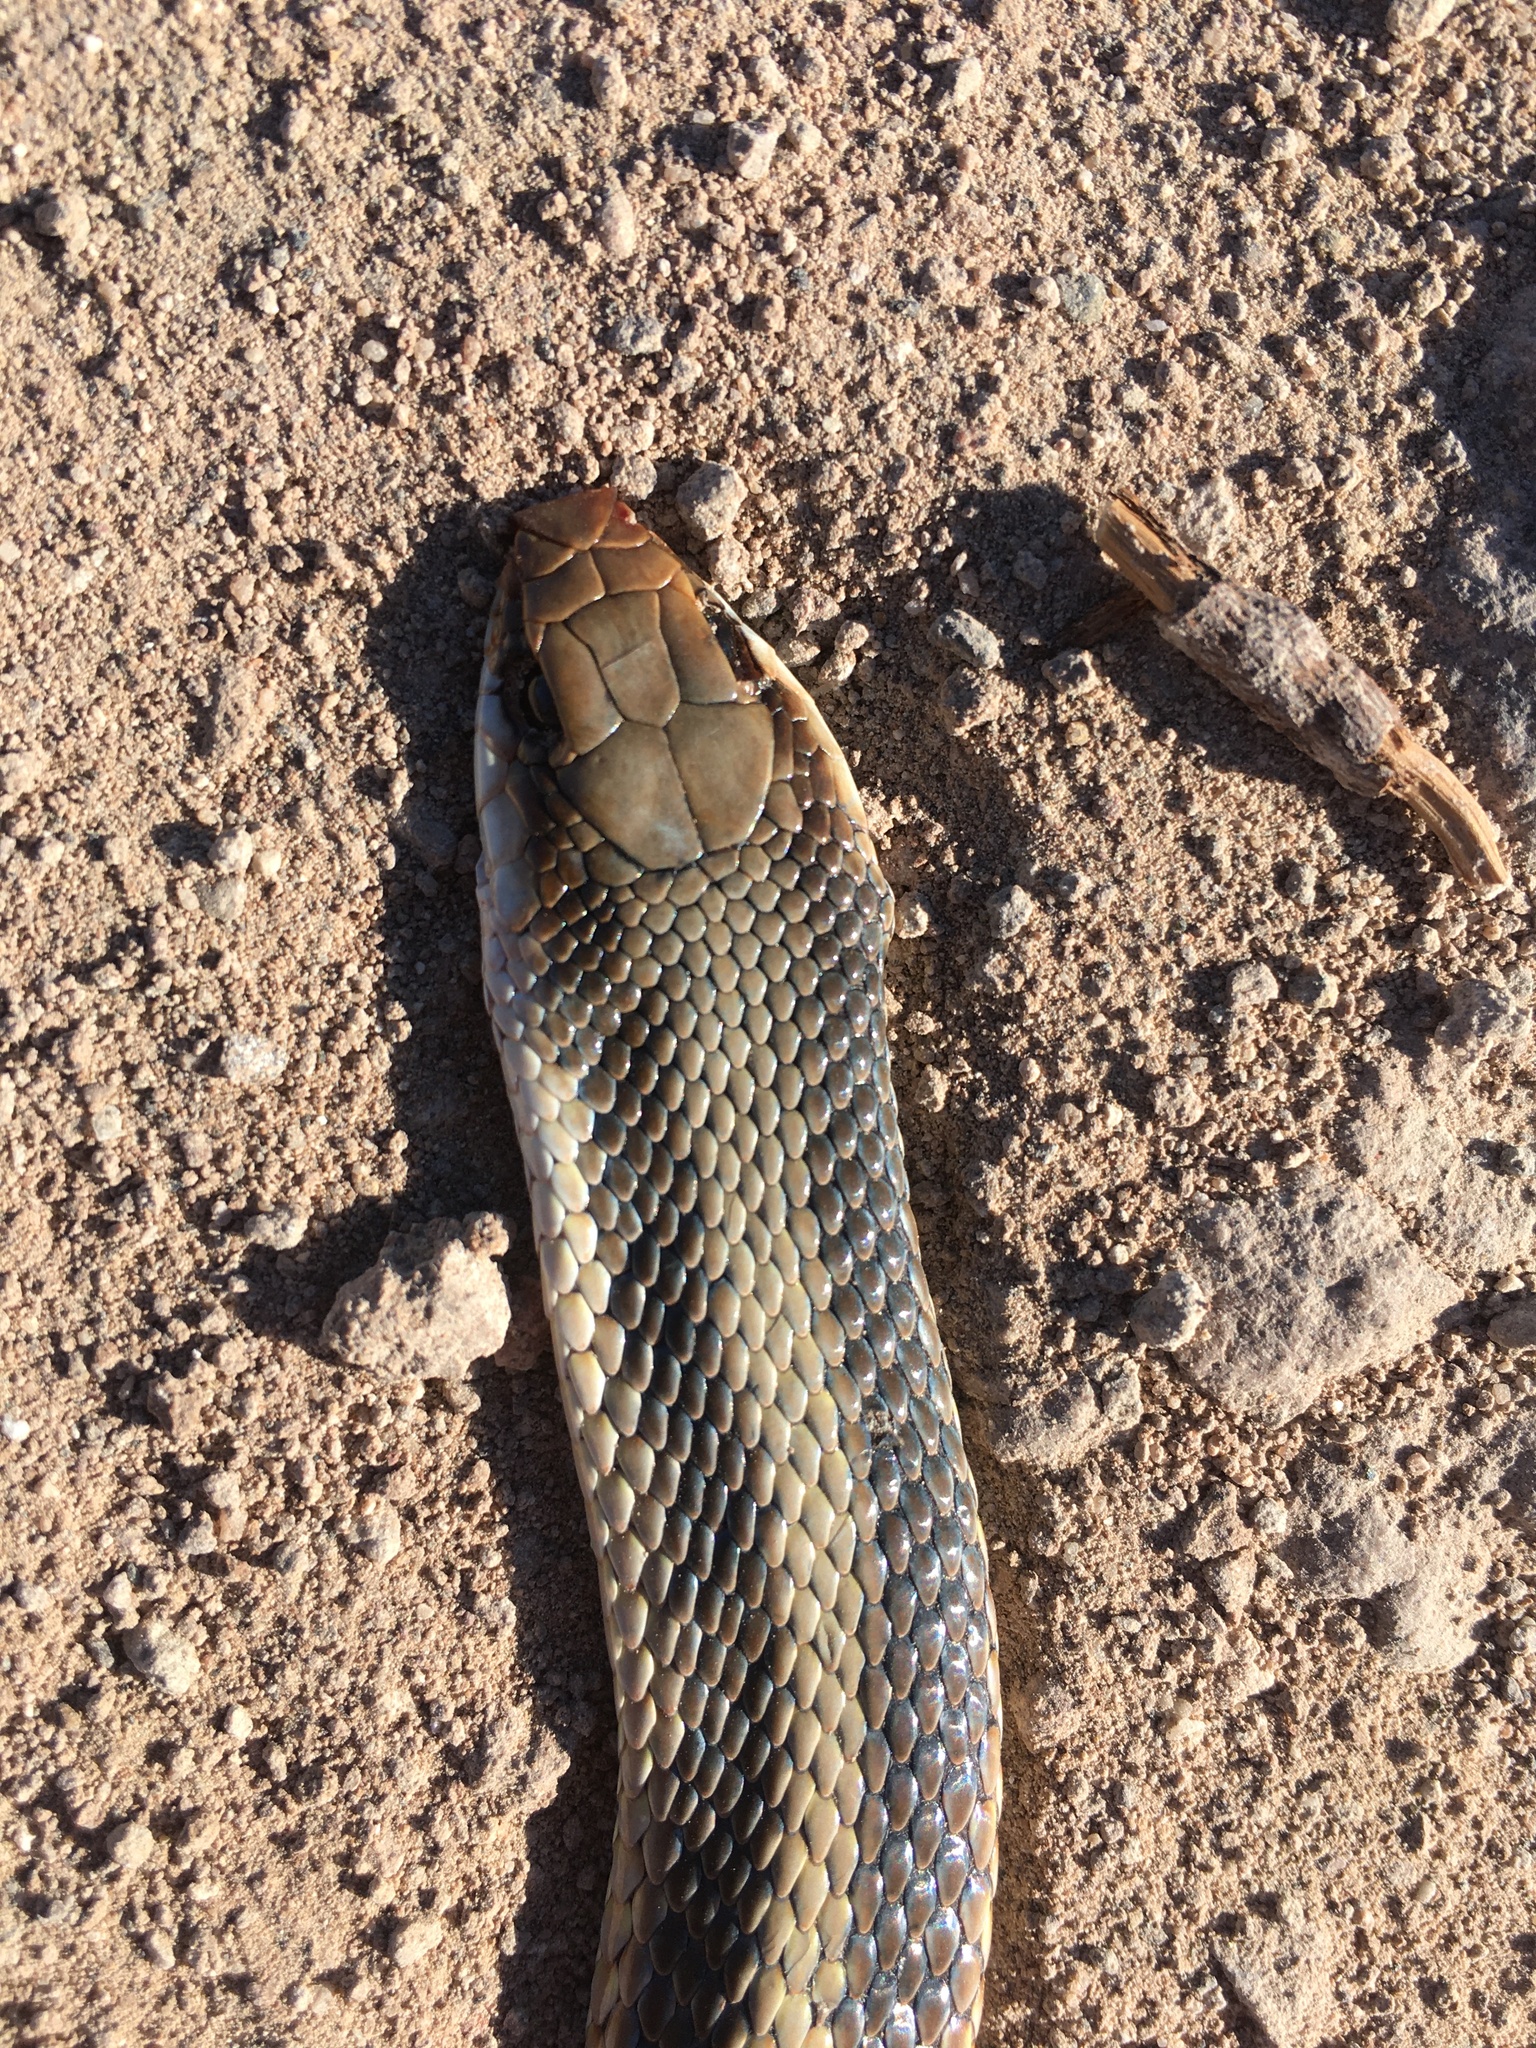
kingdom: Animalia
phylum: Chordata
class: Squamata
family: Colubridae
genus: Salvadora
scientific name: Salvadora hexalepis
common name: Western patchnose snake
